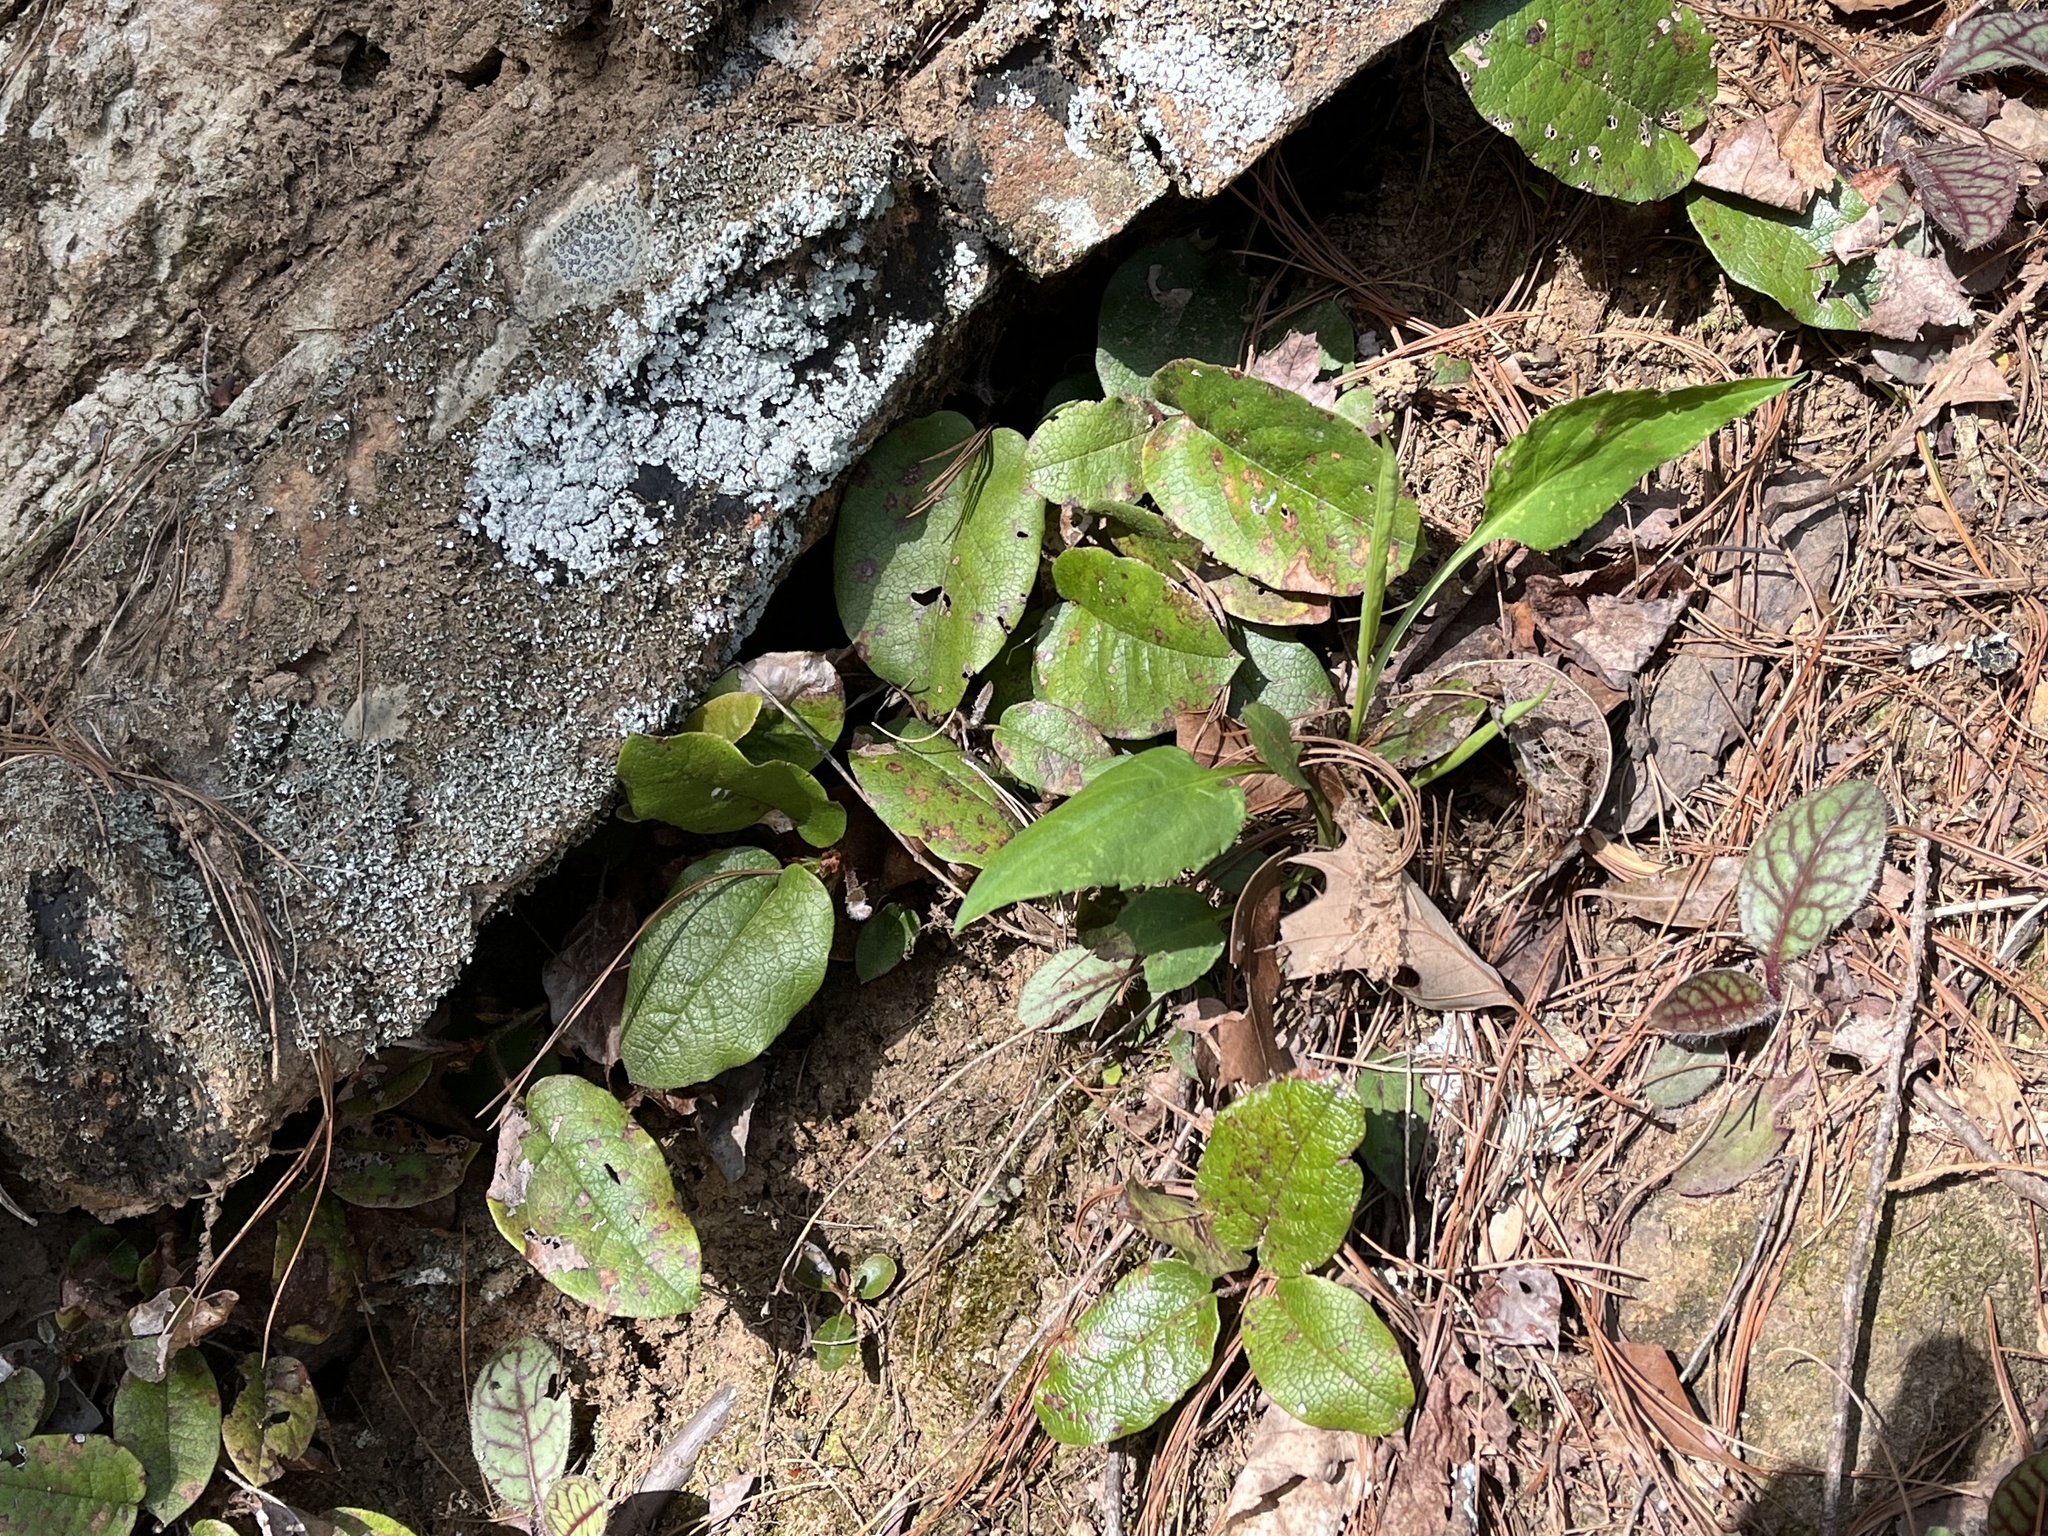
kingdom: Plantae
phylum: Tracheophyta
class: Magnoliopsida
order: Ericales
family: Ericaceae
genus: Epigaea
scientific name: Epigaea repens
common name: Gravelroot
